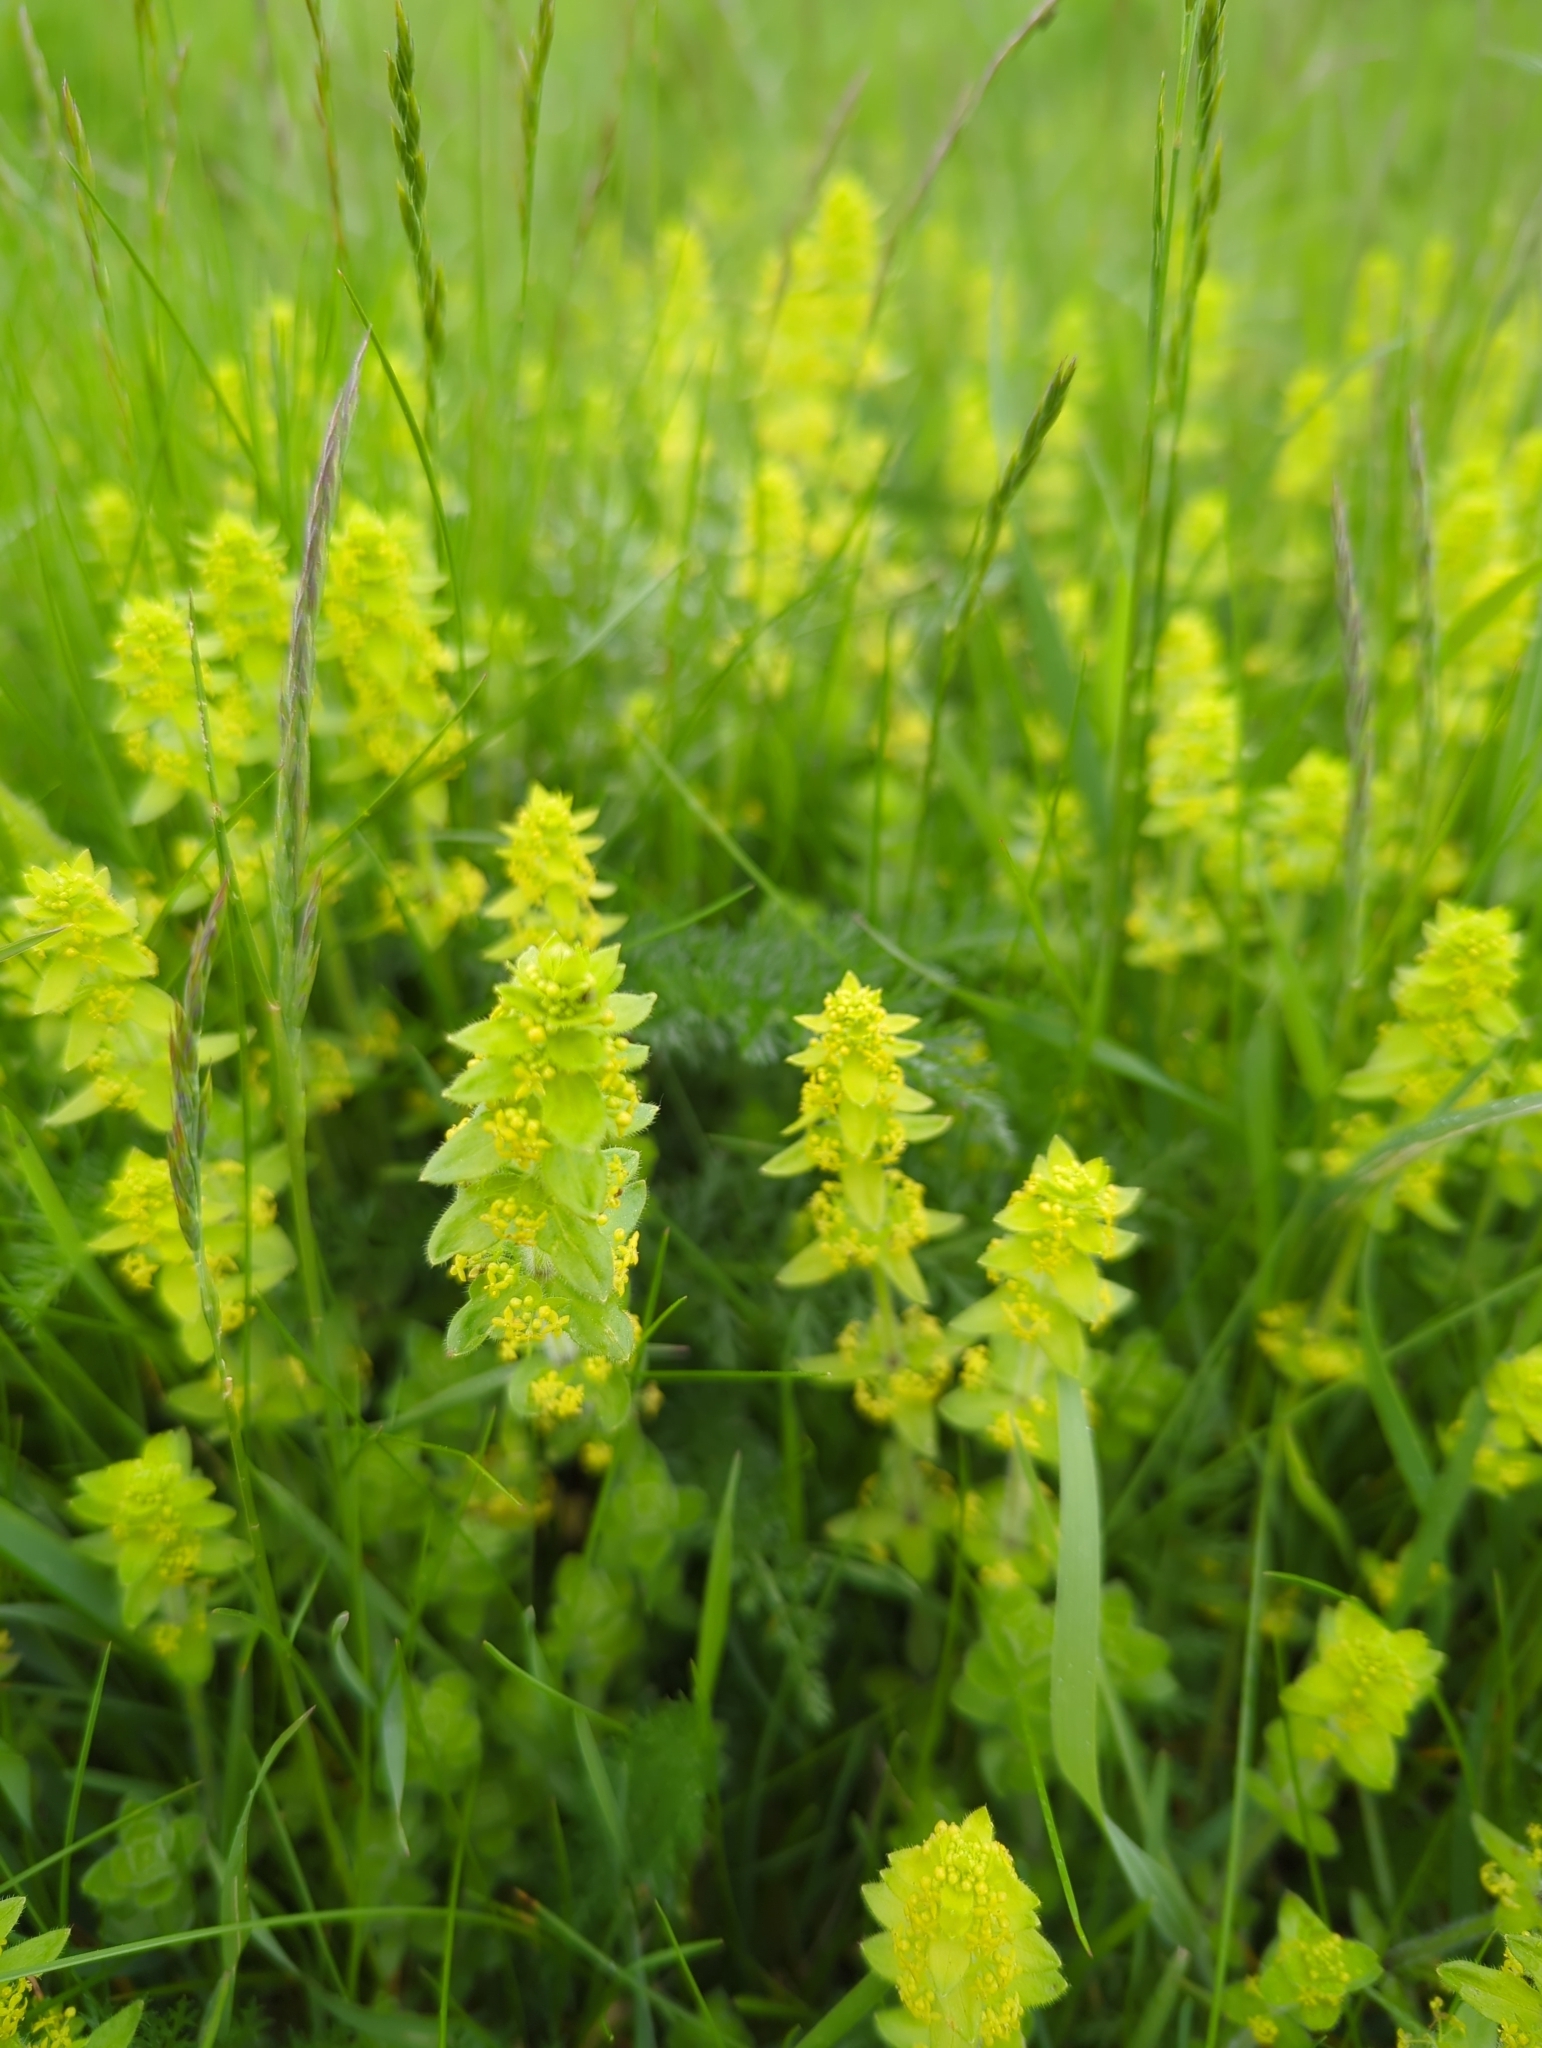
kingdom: Plantae
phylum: Tracheophyta
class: Magnoliopsida
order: Gentianales
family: Rubiaceae
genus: Cruciata
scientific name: Cruciata laevipes
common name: Crosswort
